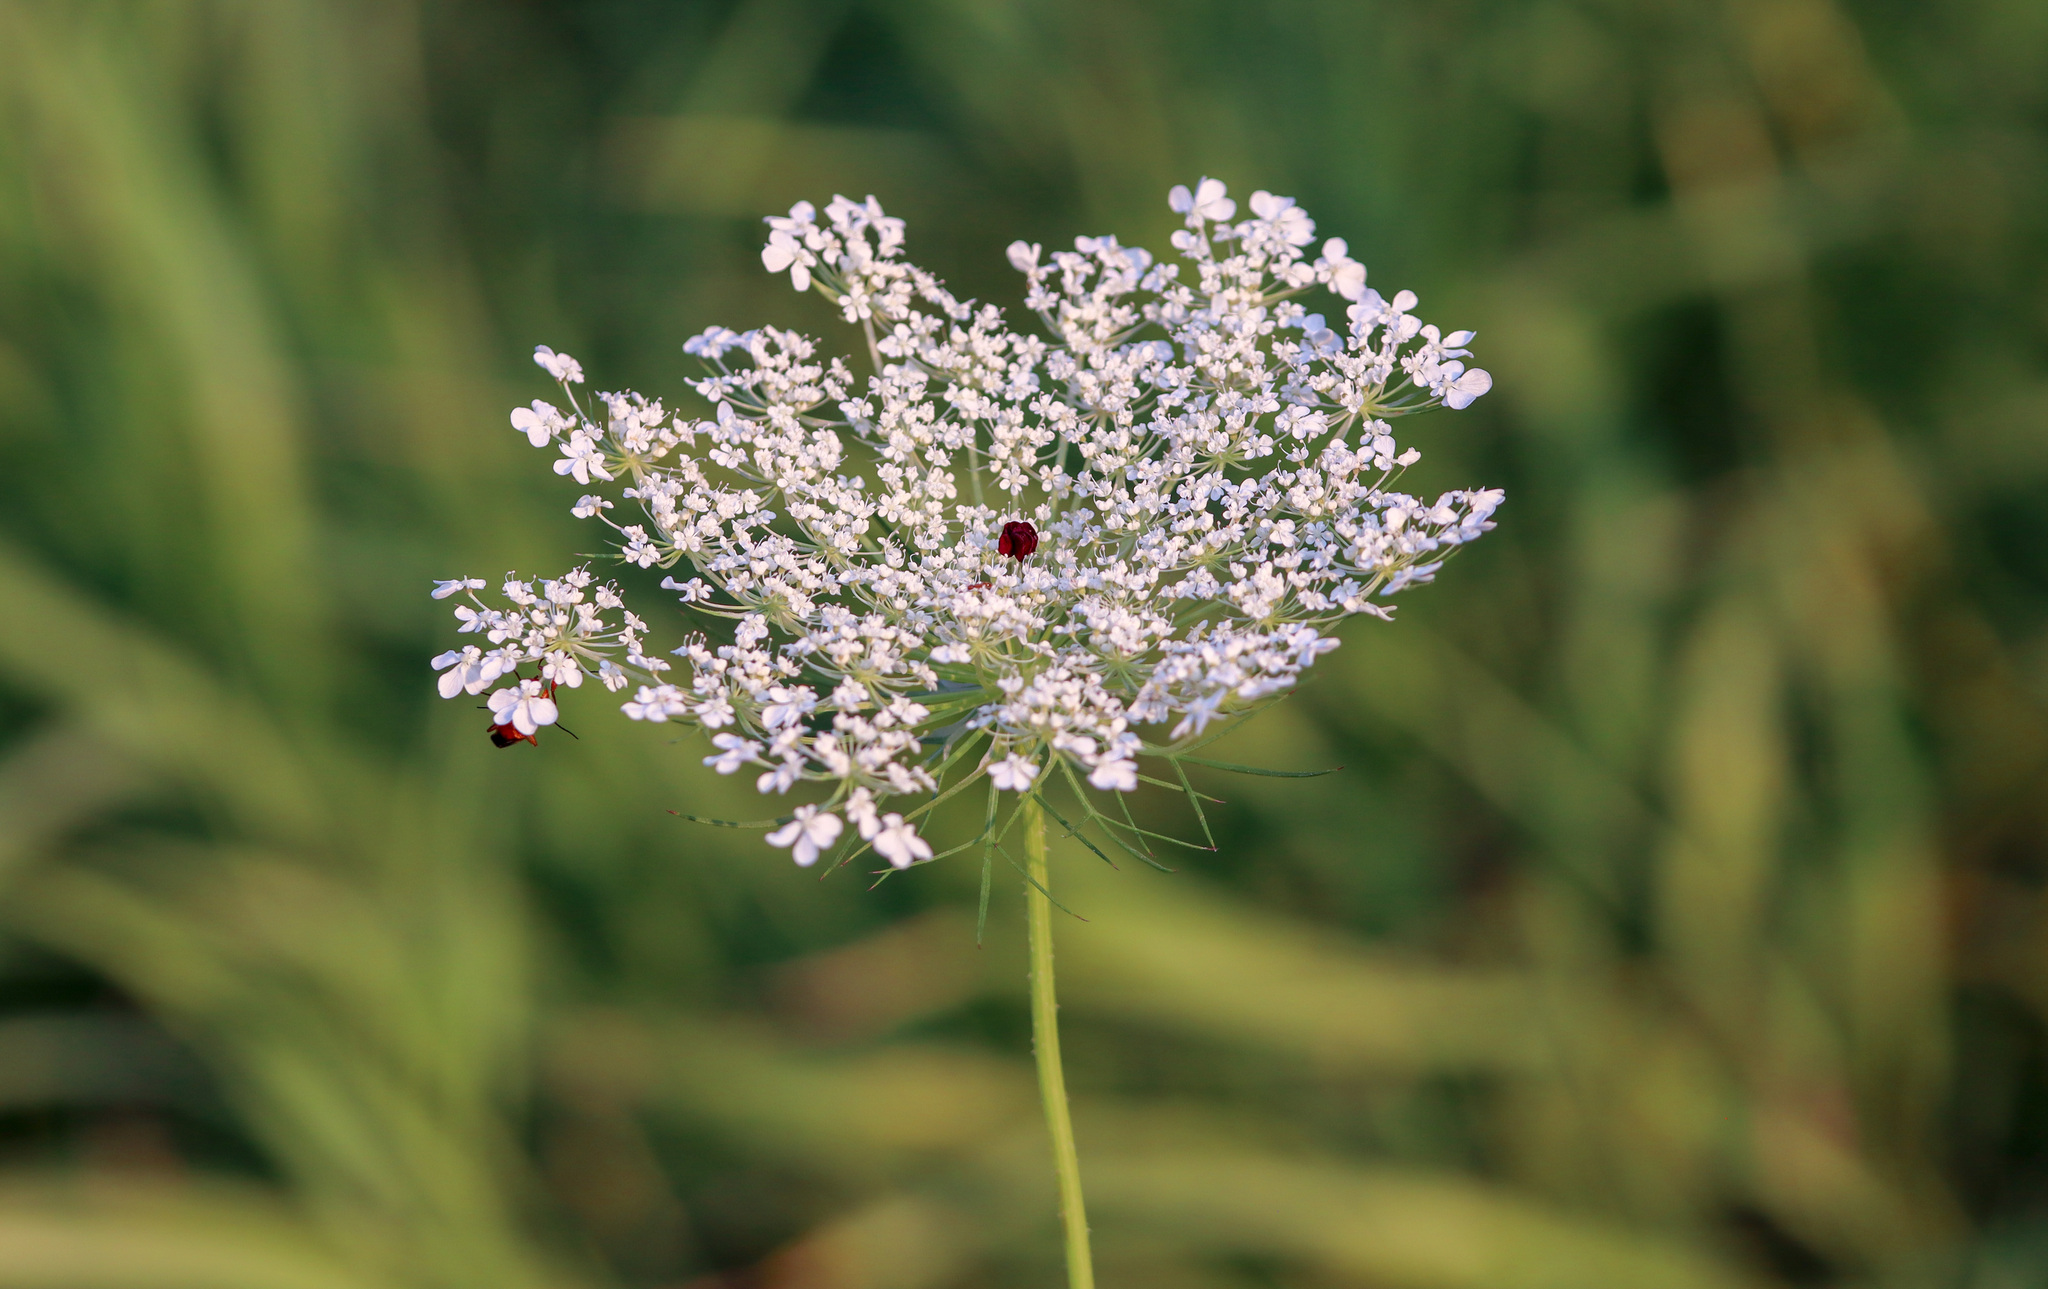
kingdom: Plantae
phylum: Tracheophyta
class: Magnoliopsida
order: Apiales
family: Apiaceae
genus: Daucus
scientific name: Daucus carota
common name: Wild carrot
